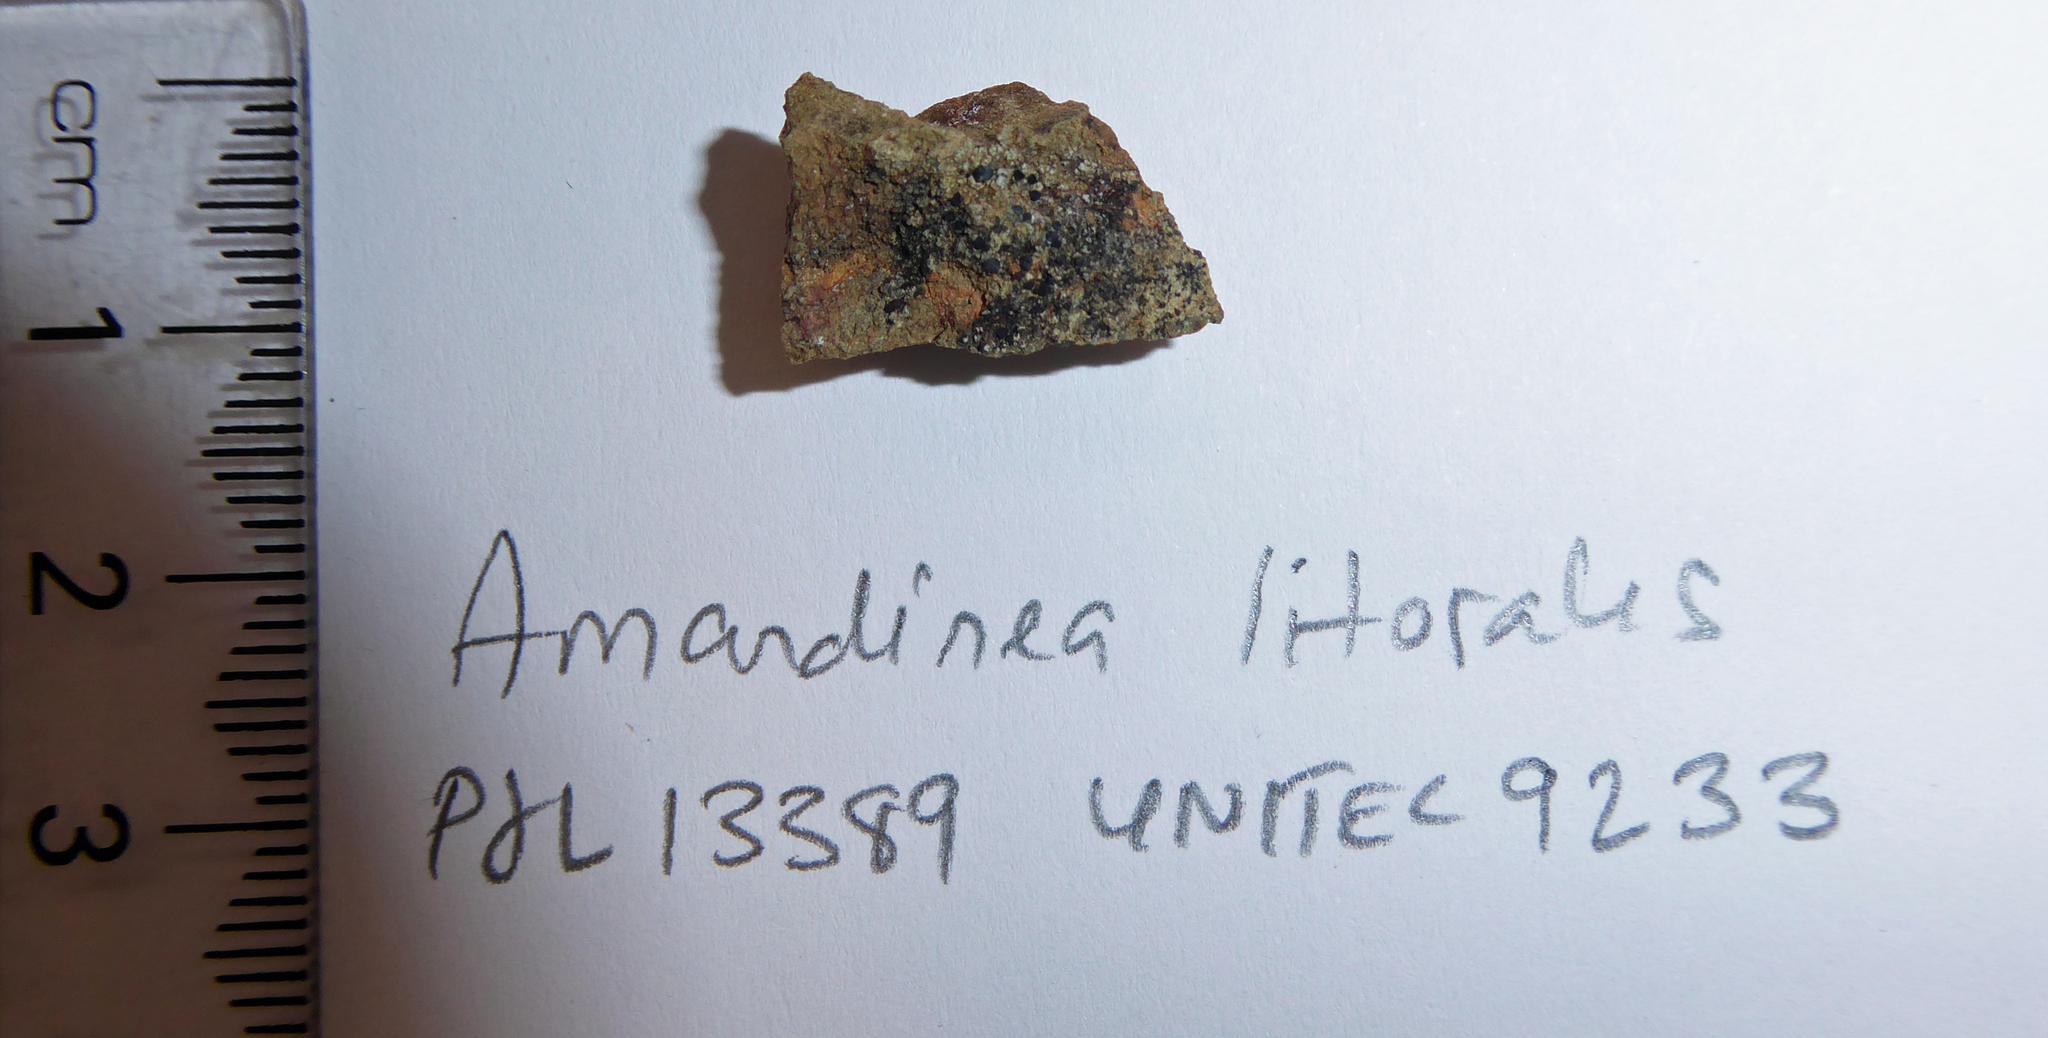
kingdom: Fungi
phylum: Ascomycota
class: Lecanoromycetes
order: Caliciales
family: Caliciaceae
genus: Amandinea
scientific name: Amandinea delangei
